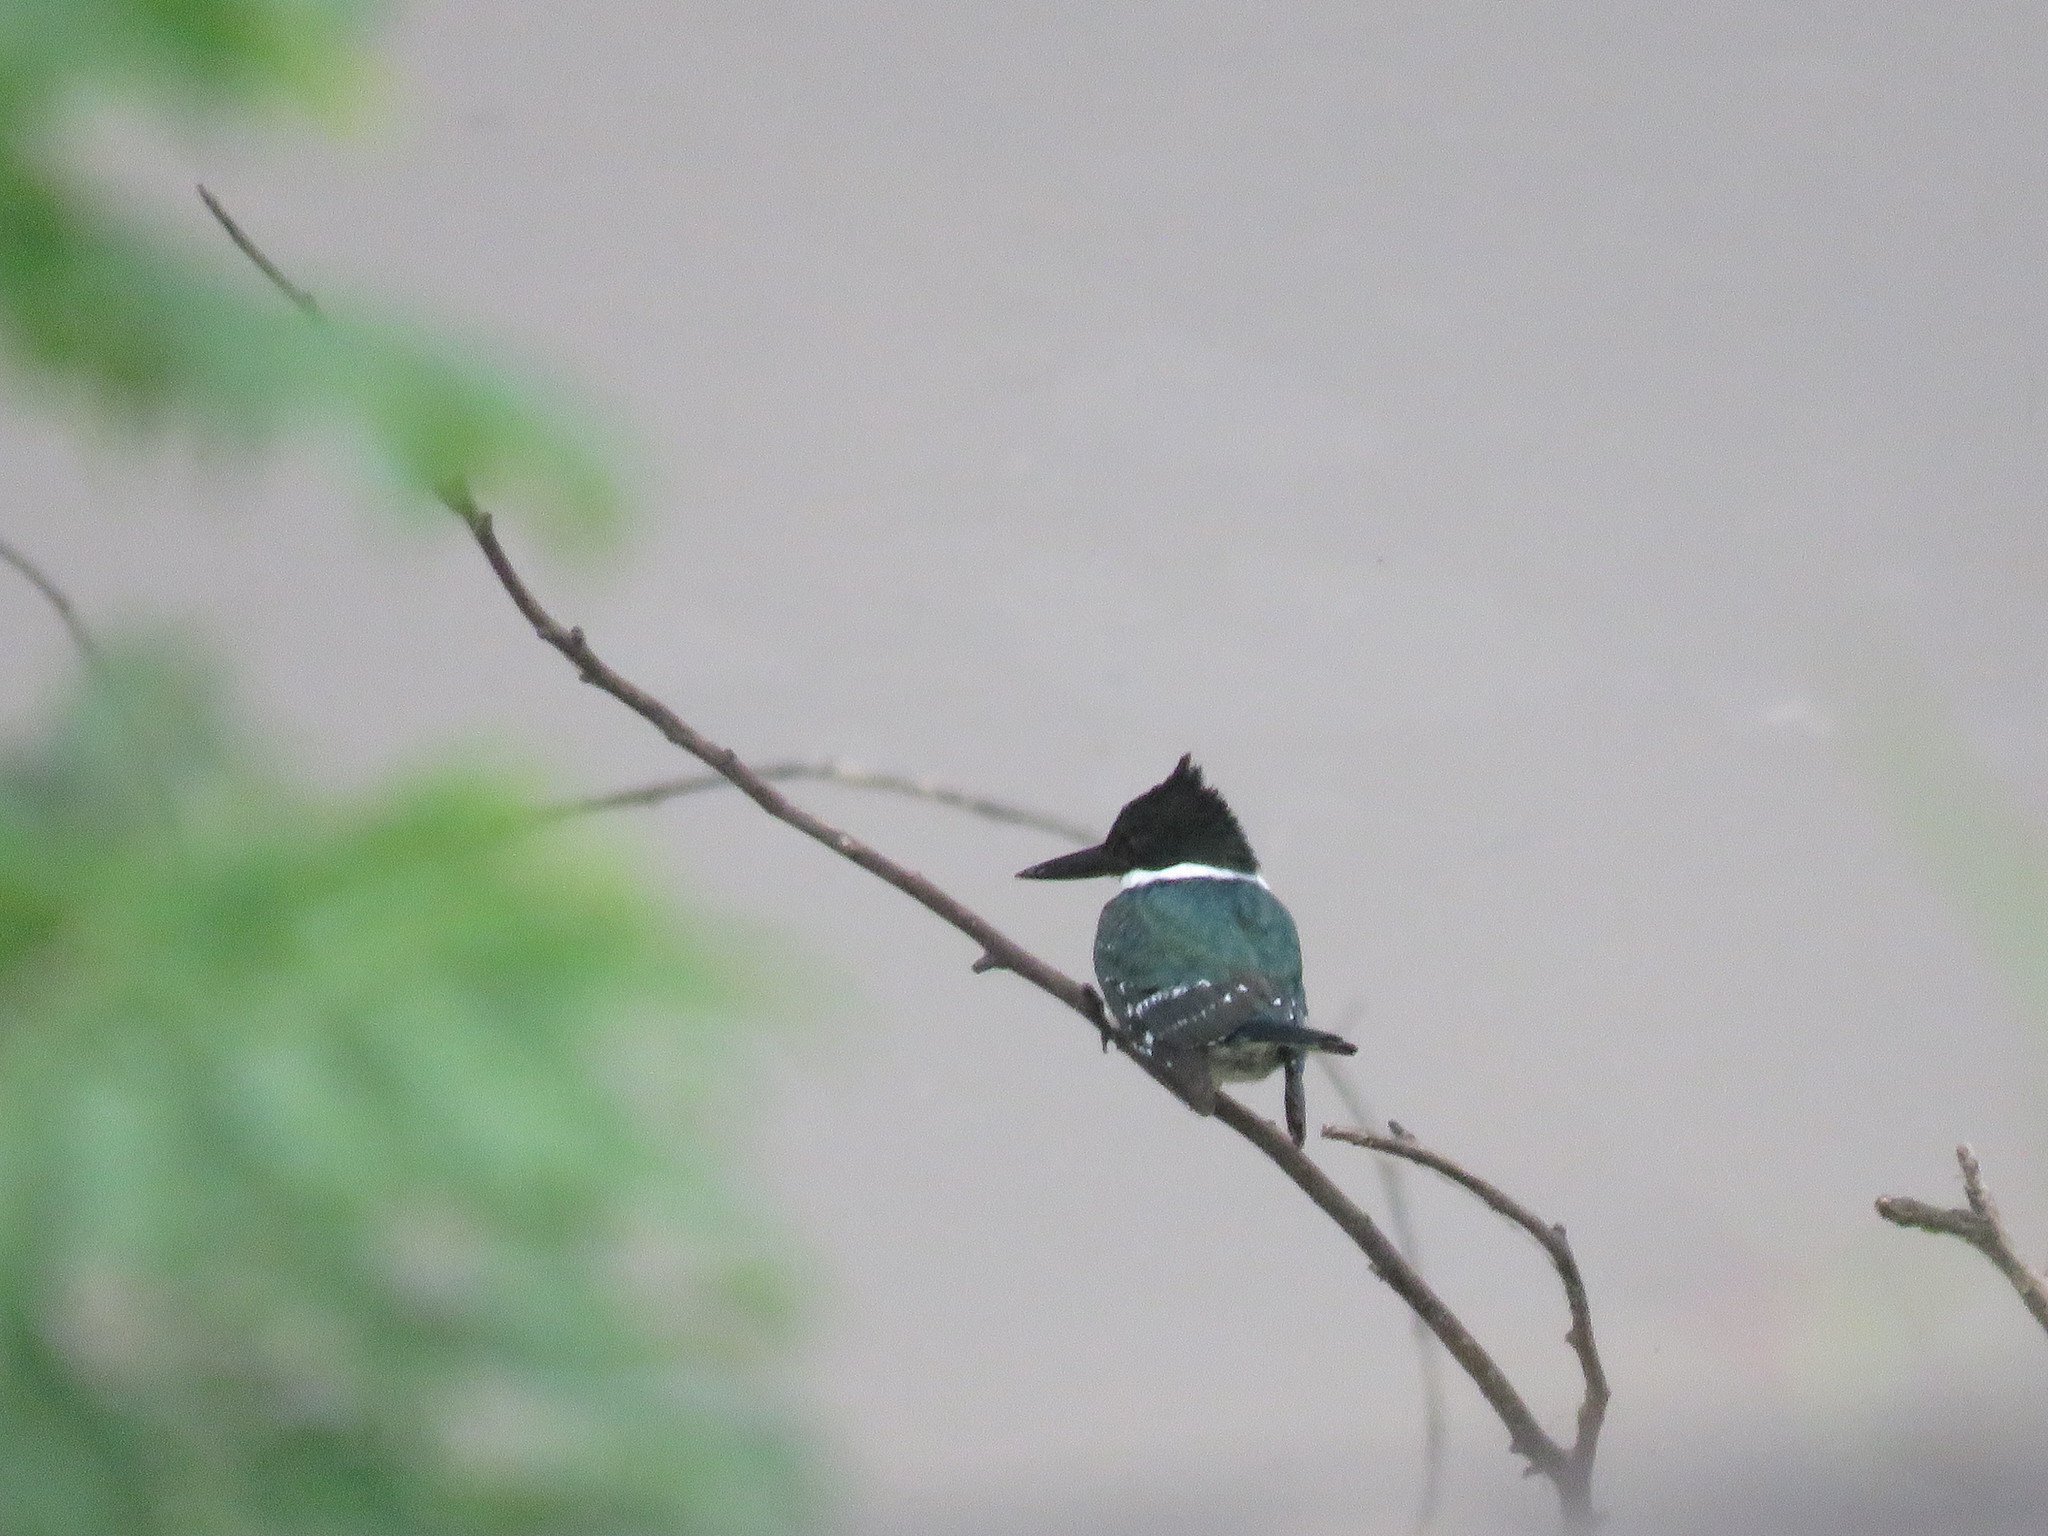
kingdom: Animalia
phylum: Chordata
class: Aves
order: Coraciiformes
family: Alcedinidae
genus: Chloroceryle
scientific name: Chloroceryle americana
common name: Green kingfisher
